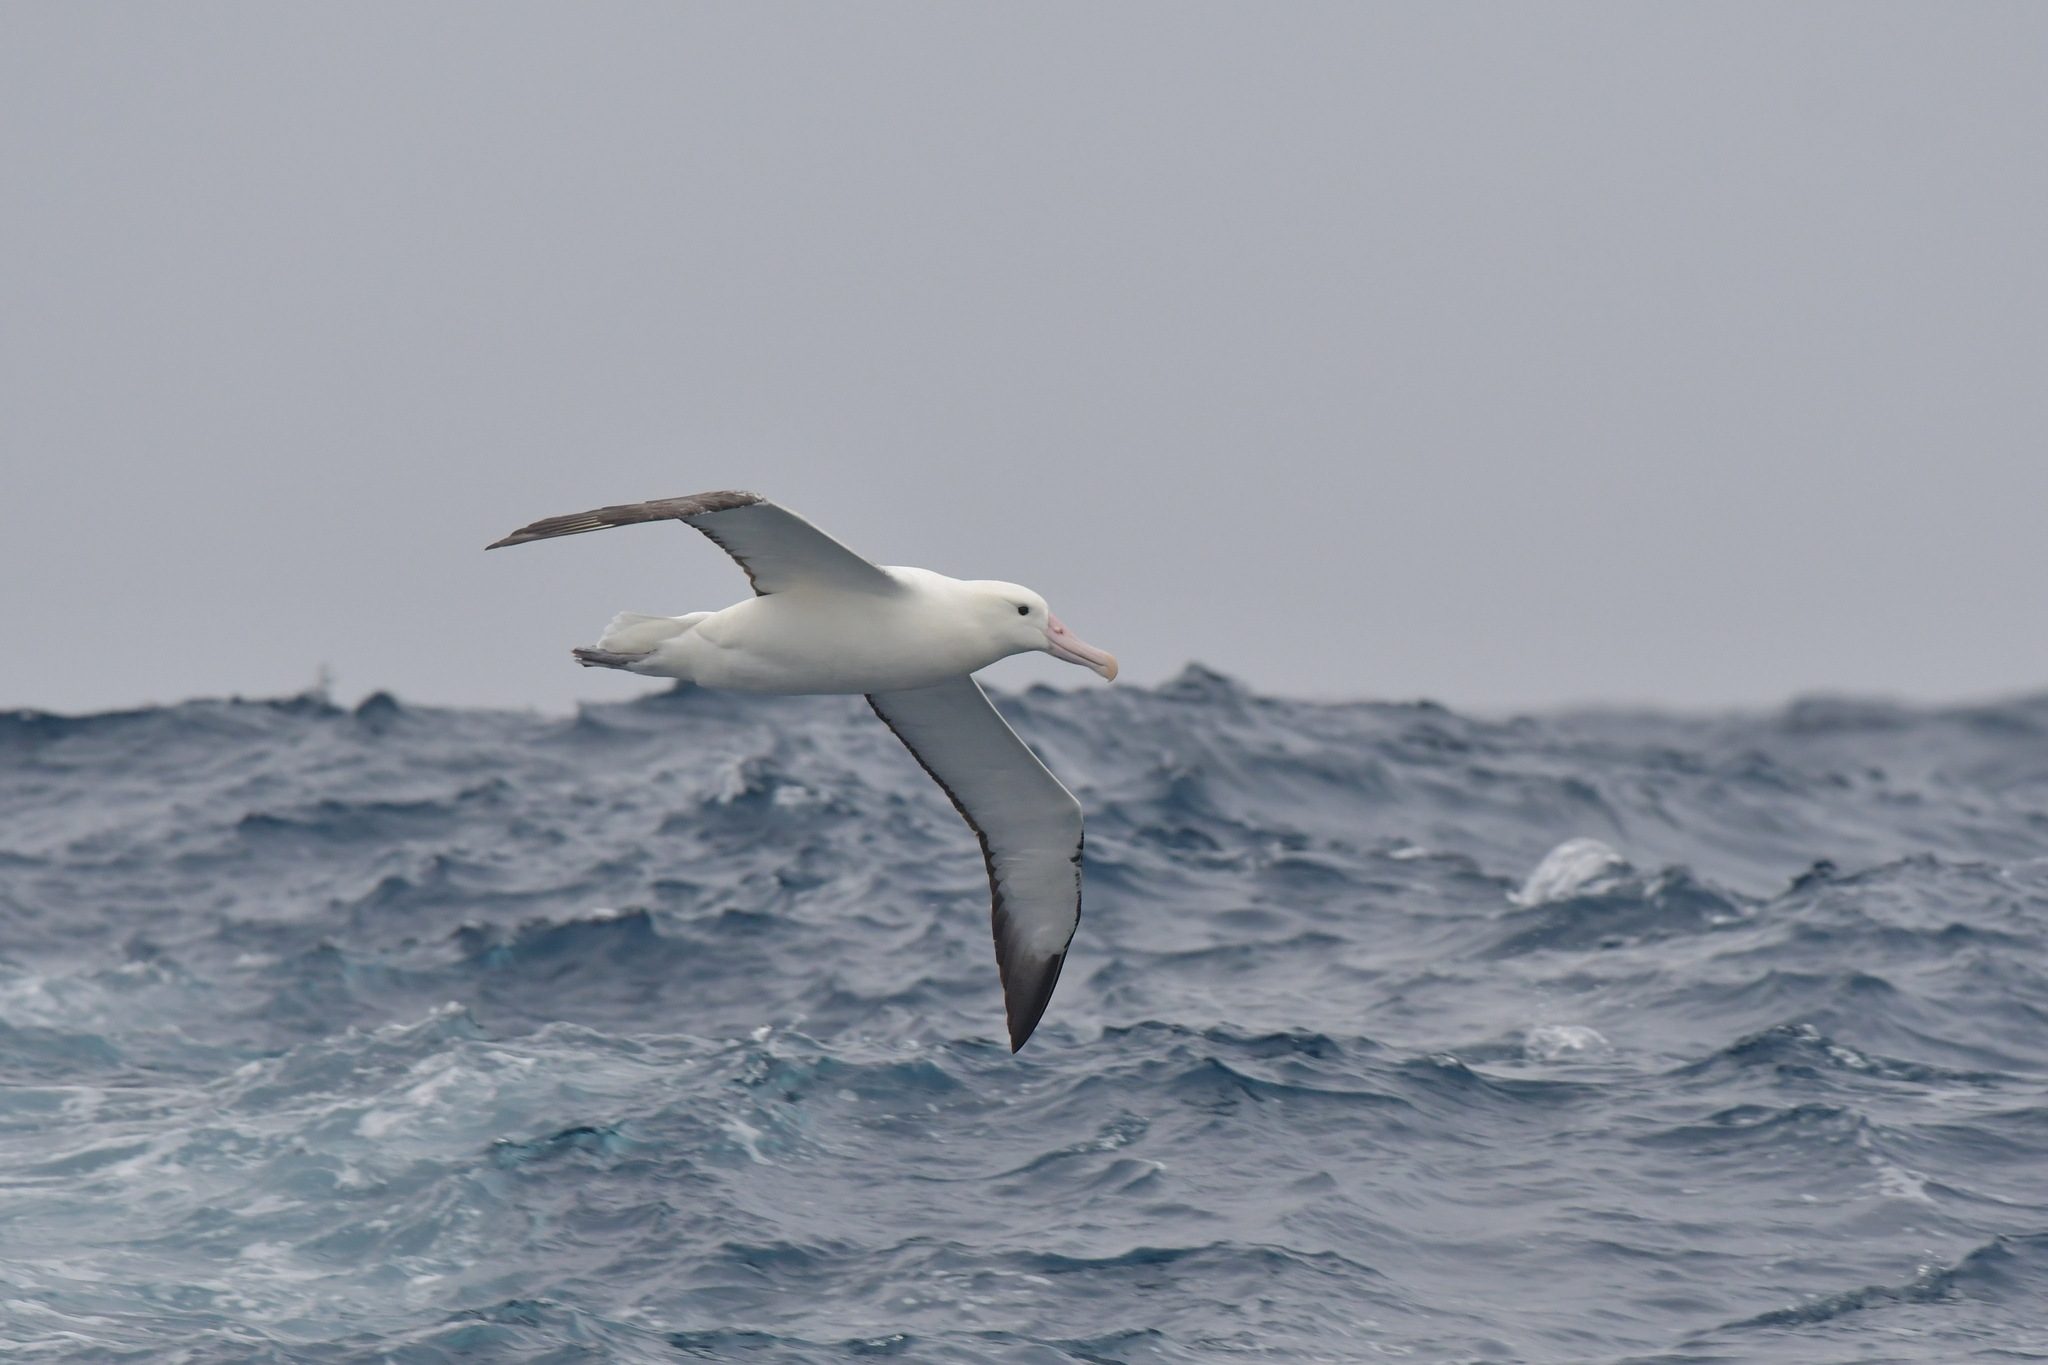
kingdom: Animalia
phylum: Chordata
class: Aves
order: Procellariiformes
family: Diomedeidae
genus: Diomedea
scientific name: Diomedea epomophora
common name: Southern royal albatross
